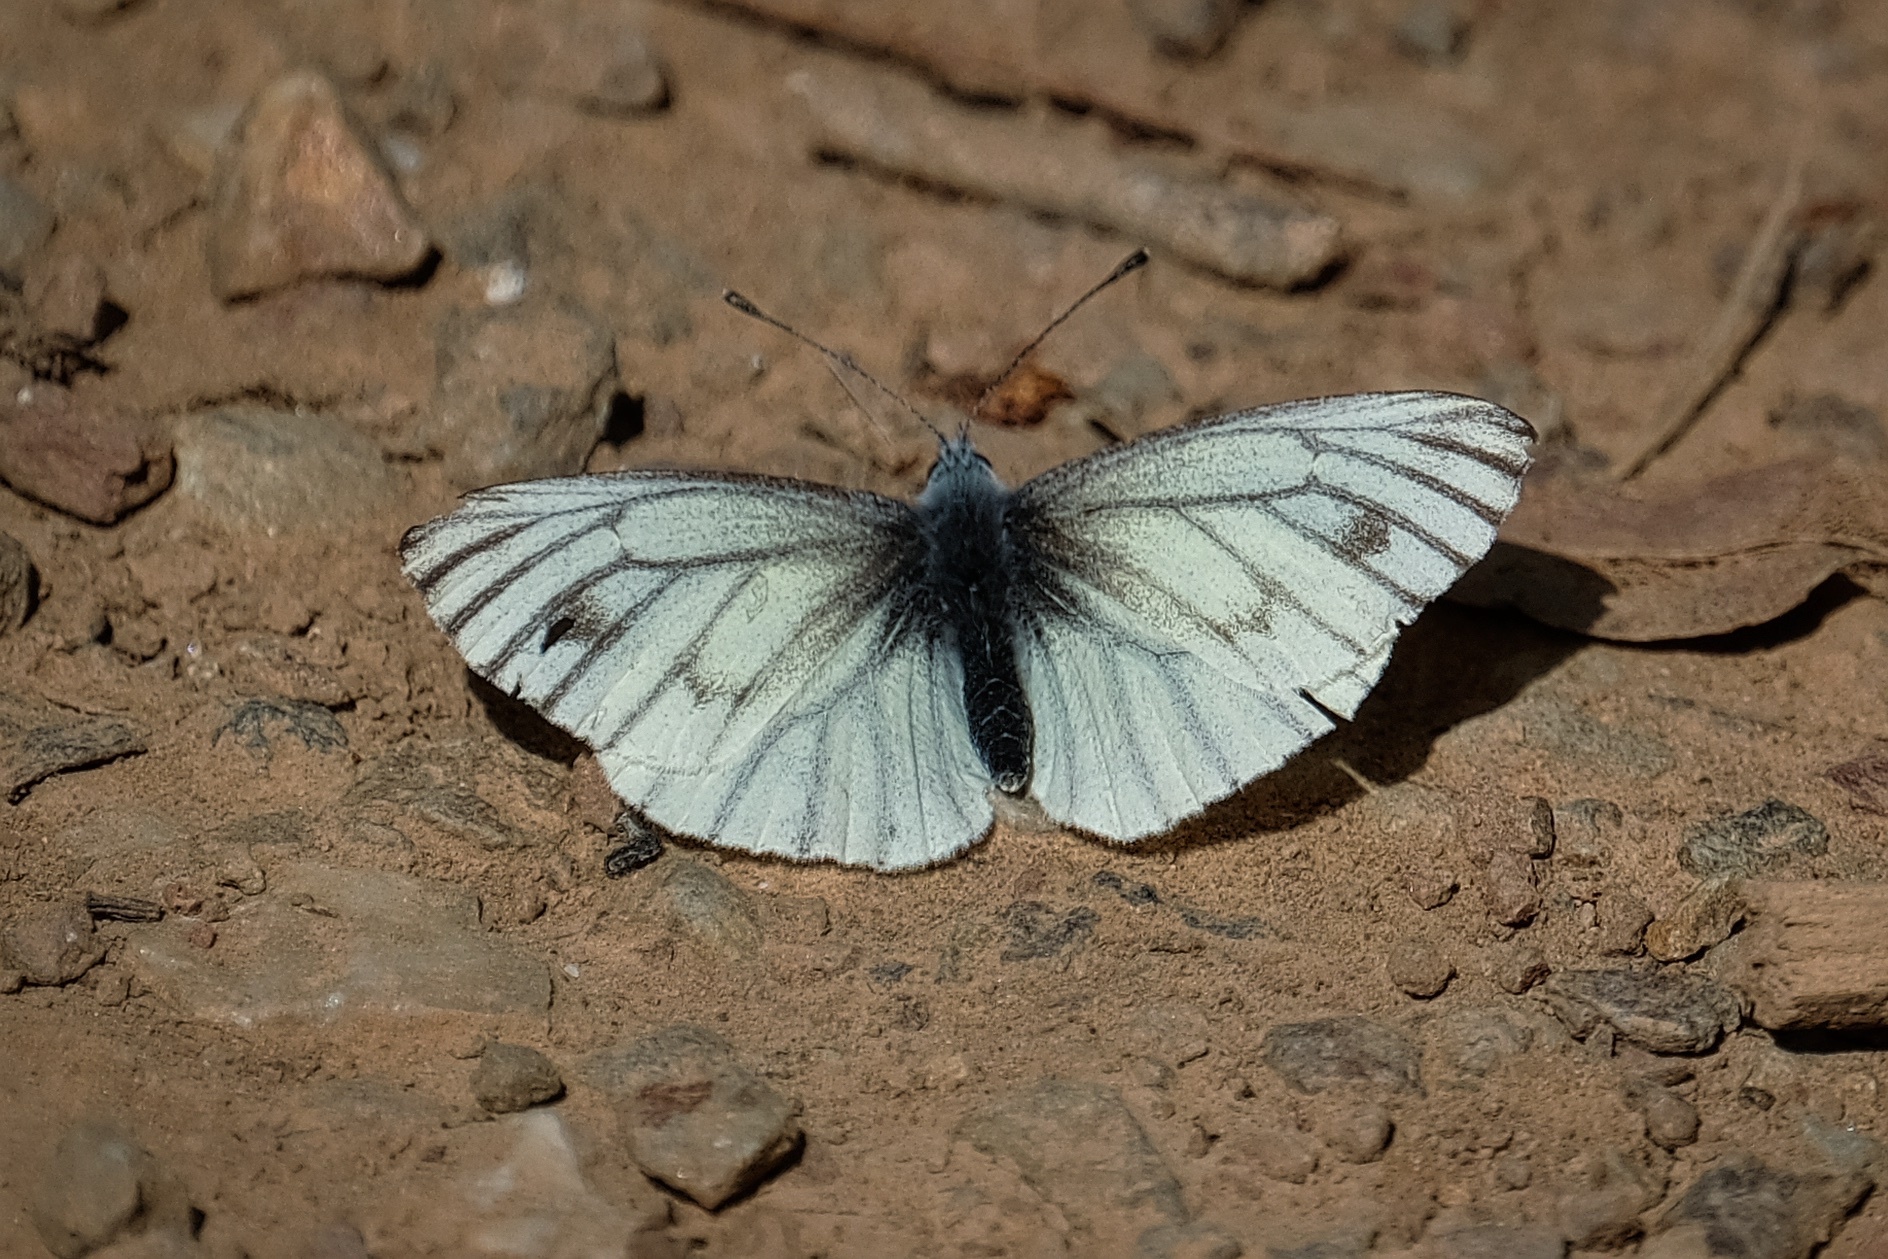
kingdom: Animalia
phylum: Arthropoda
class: Insecta
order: Lepidoptera
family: Pieridae
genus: Pieris
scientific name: Pieris marginalis
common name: Margined white
